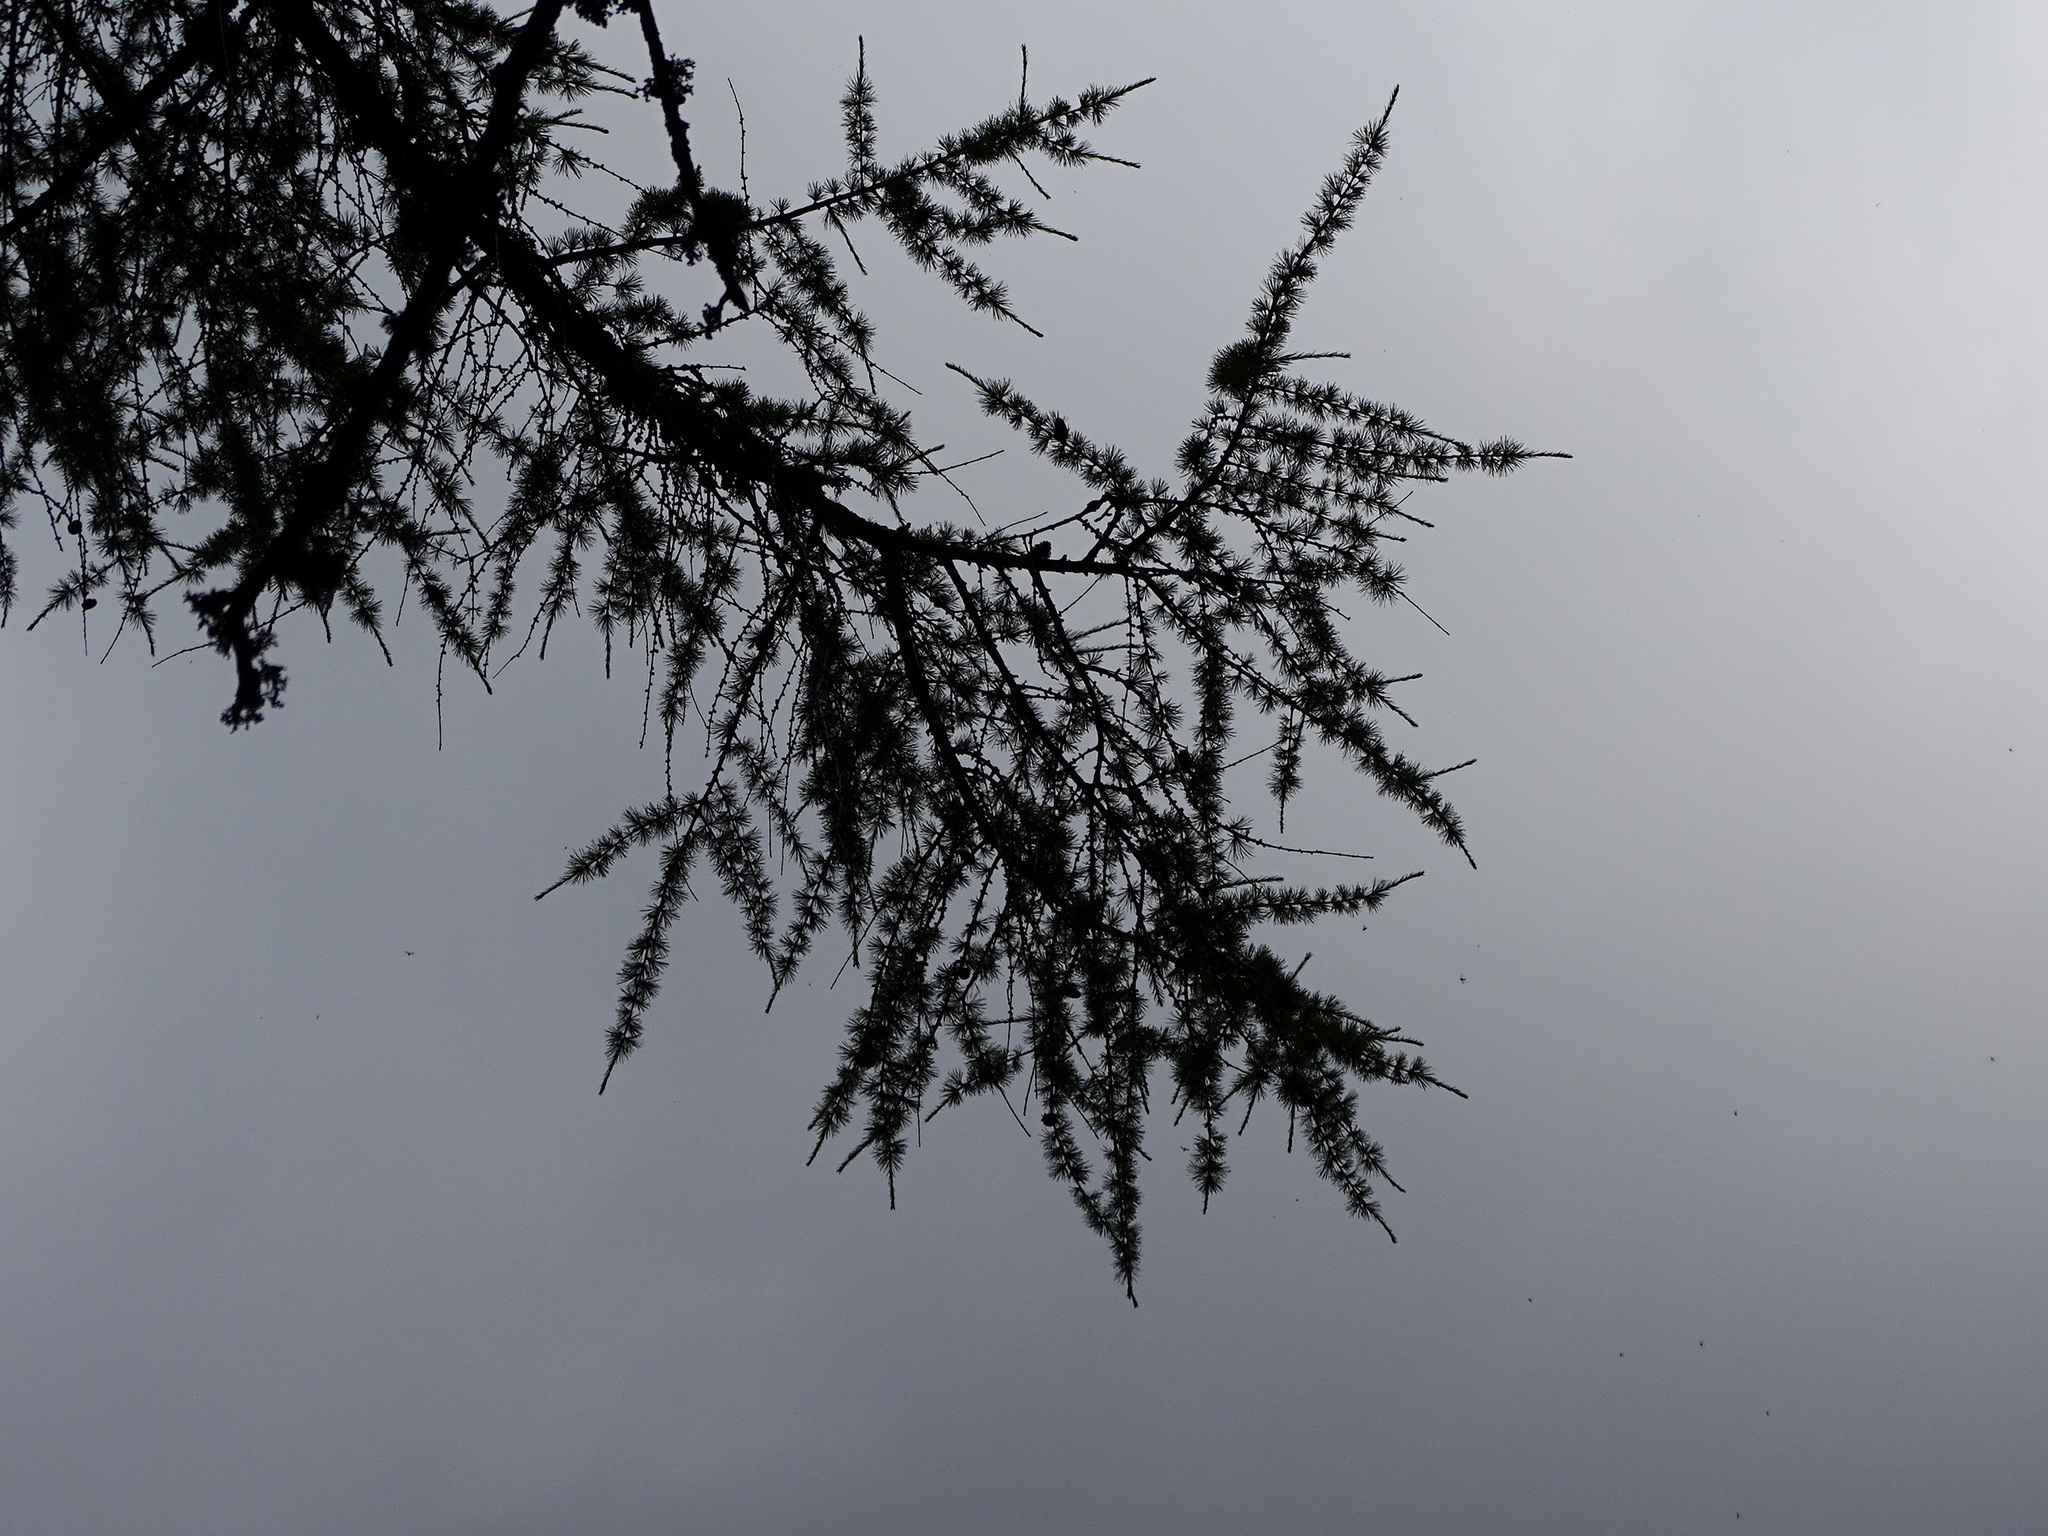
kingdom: Plantae
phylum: Tracheophyta
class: Pinopsida
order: Pinales
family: Pinaceae
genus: Larix
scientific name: Larix decidua
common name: European larch
